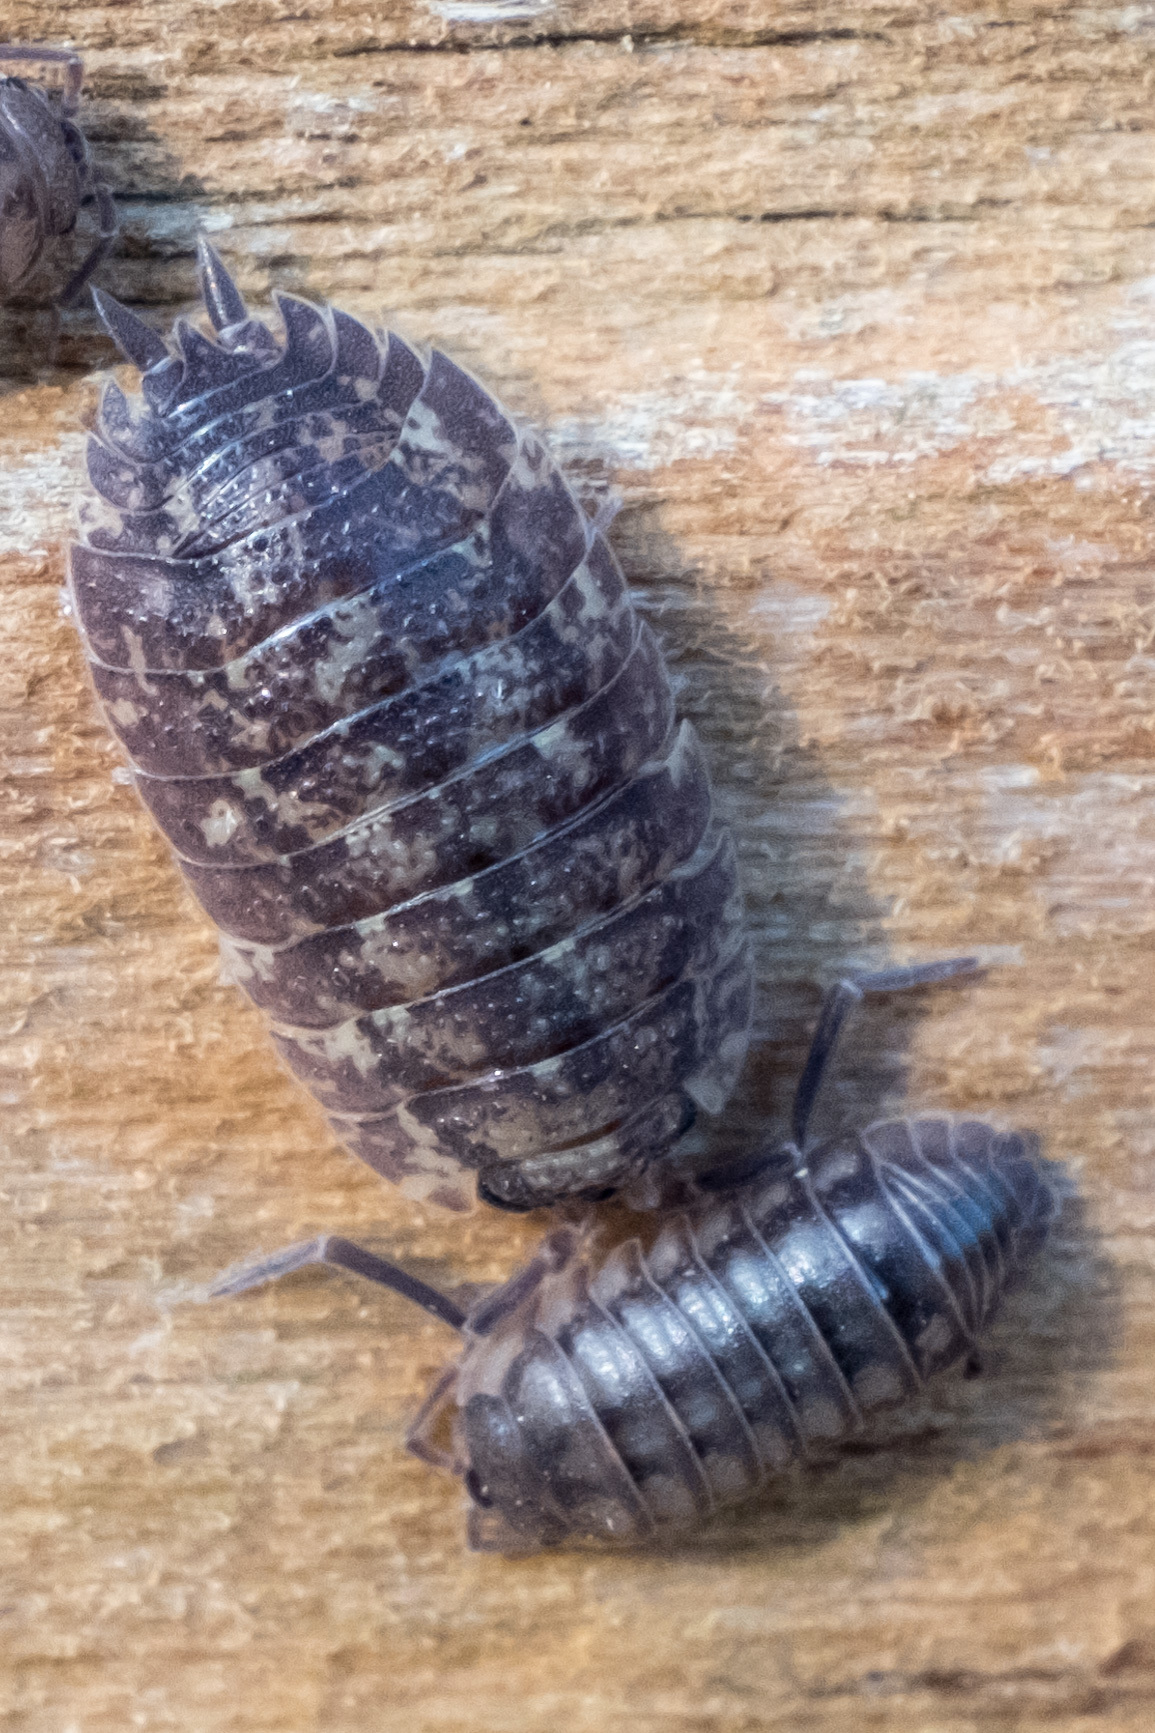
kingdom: Animalia
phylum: Arthropoda
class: Malacostraca
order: Isopoda
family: Porcellionidae
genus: Porcellio
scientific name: Porcellio scaber
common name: Common rough woodlouse
